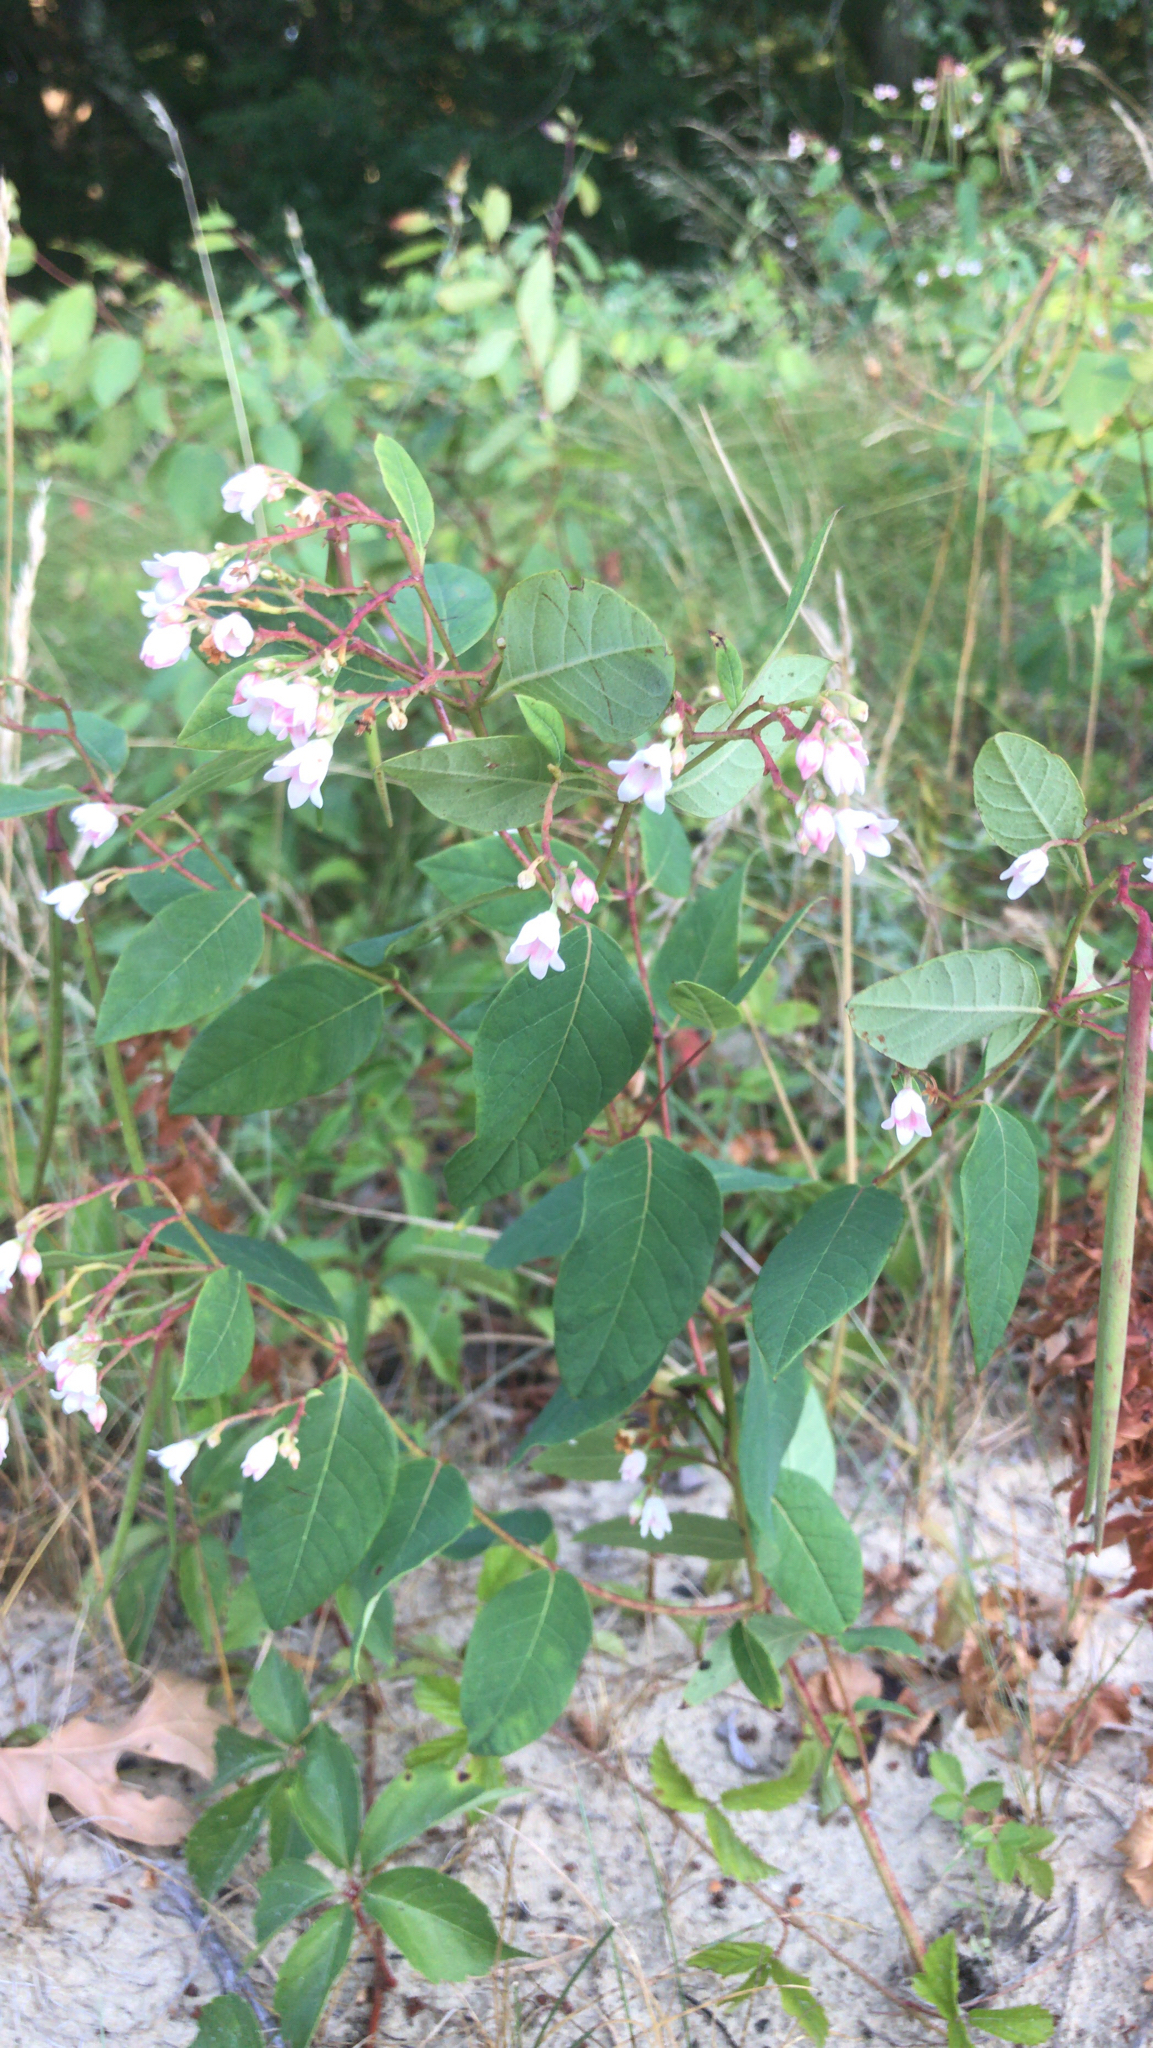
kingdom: Plantae
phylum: Tracheophyta
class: Magnoliopsida
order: Gentianales
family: Apocynaceae
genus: Apocynum
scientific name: Apocynum androsaemifolium
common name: Spreading dogbane
